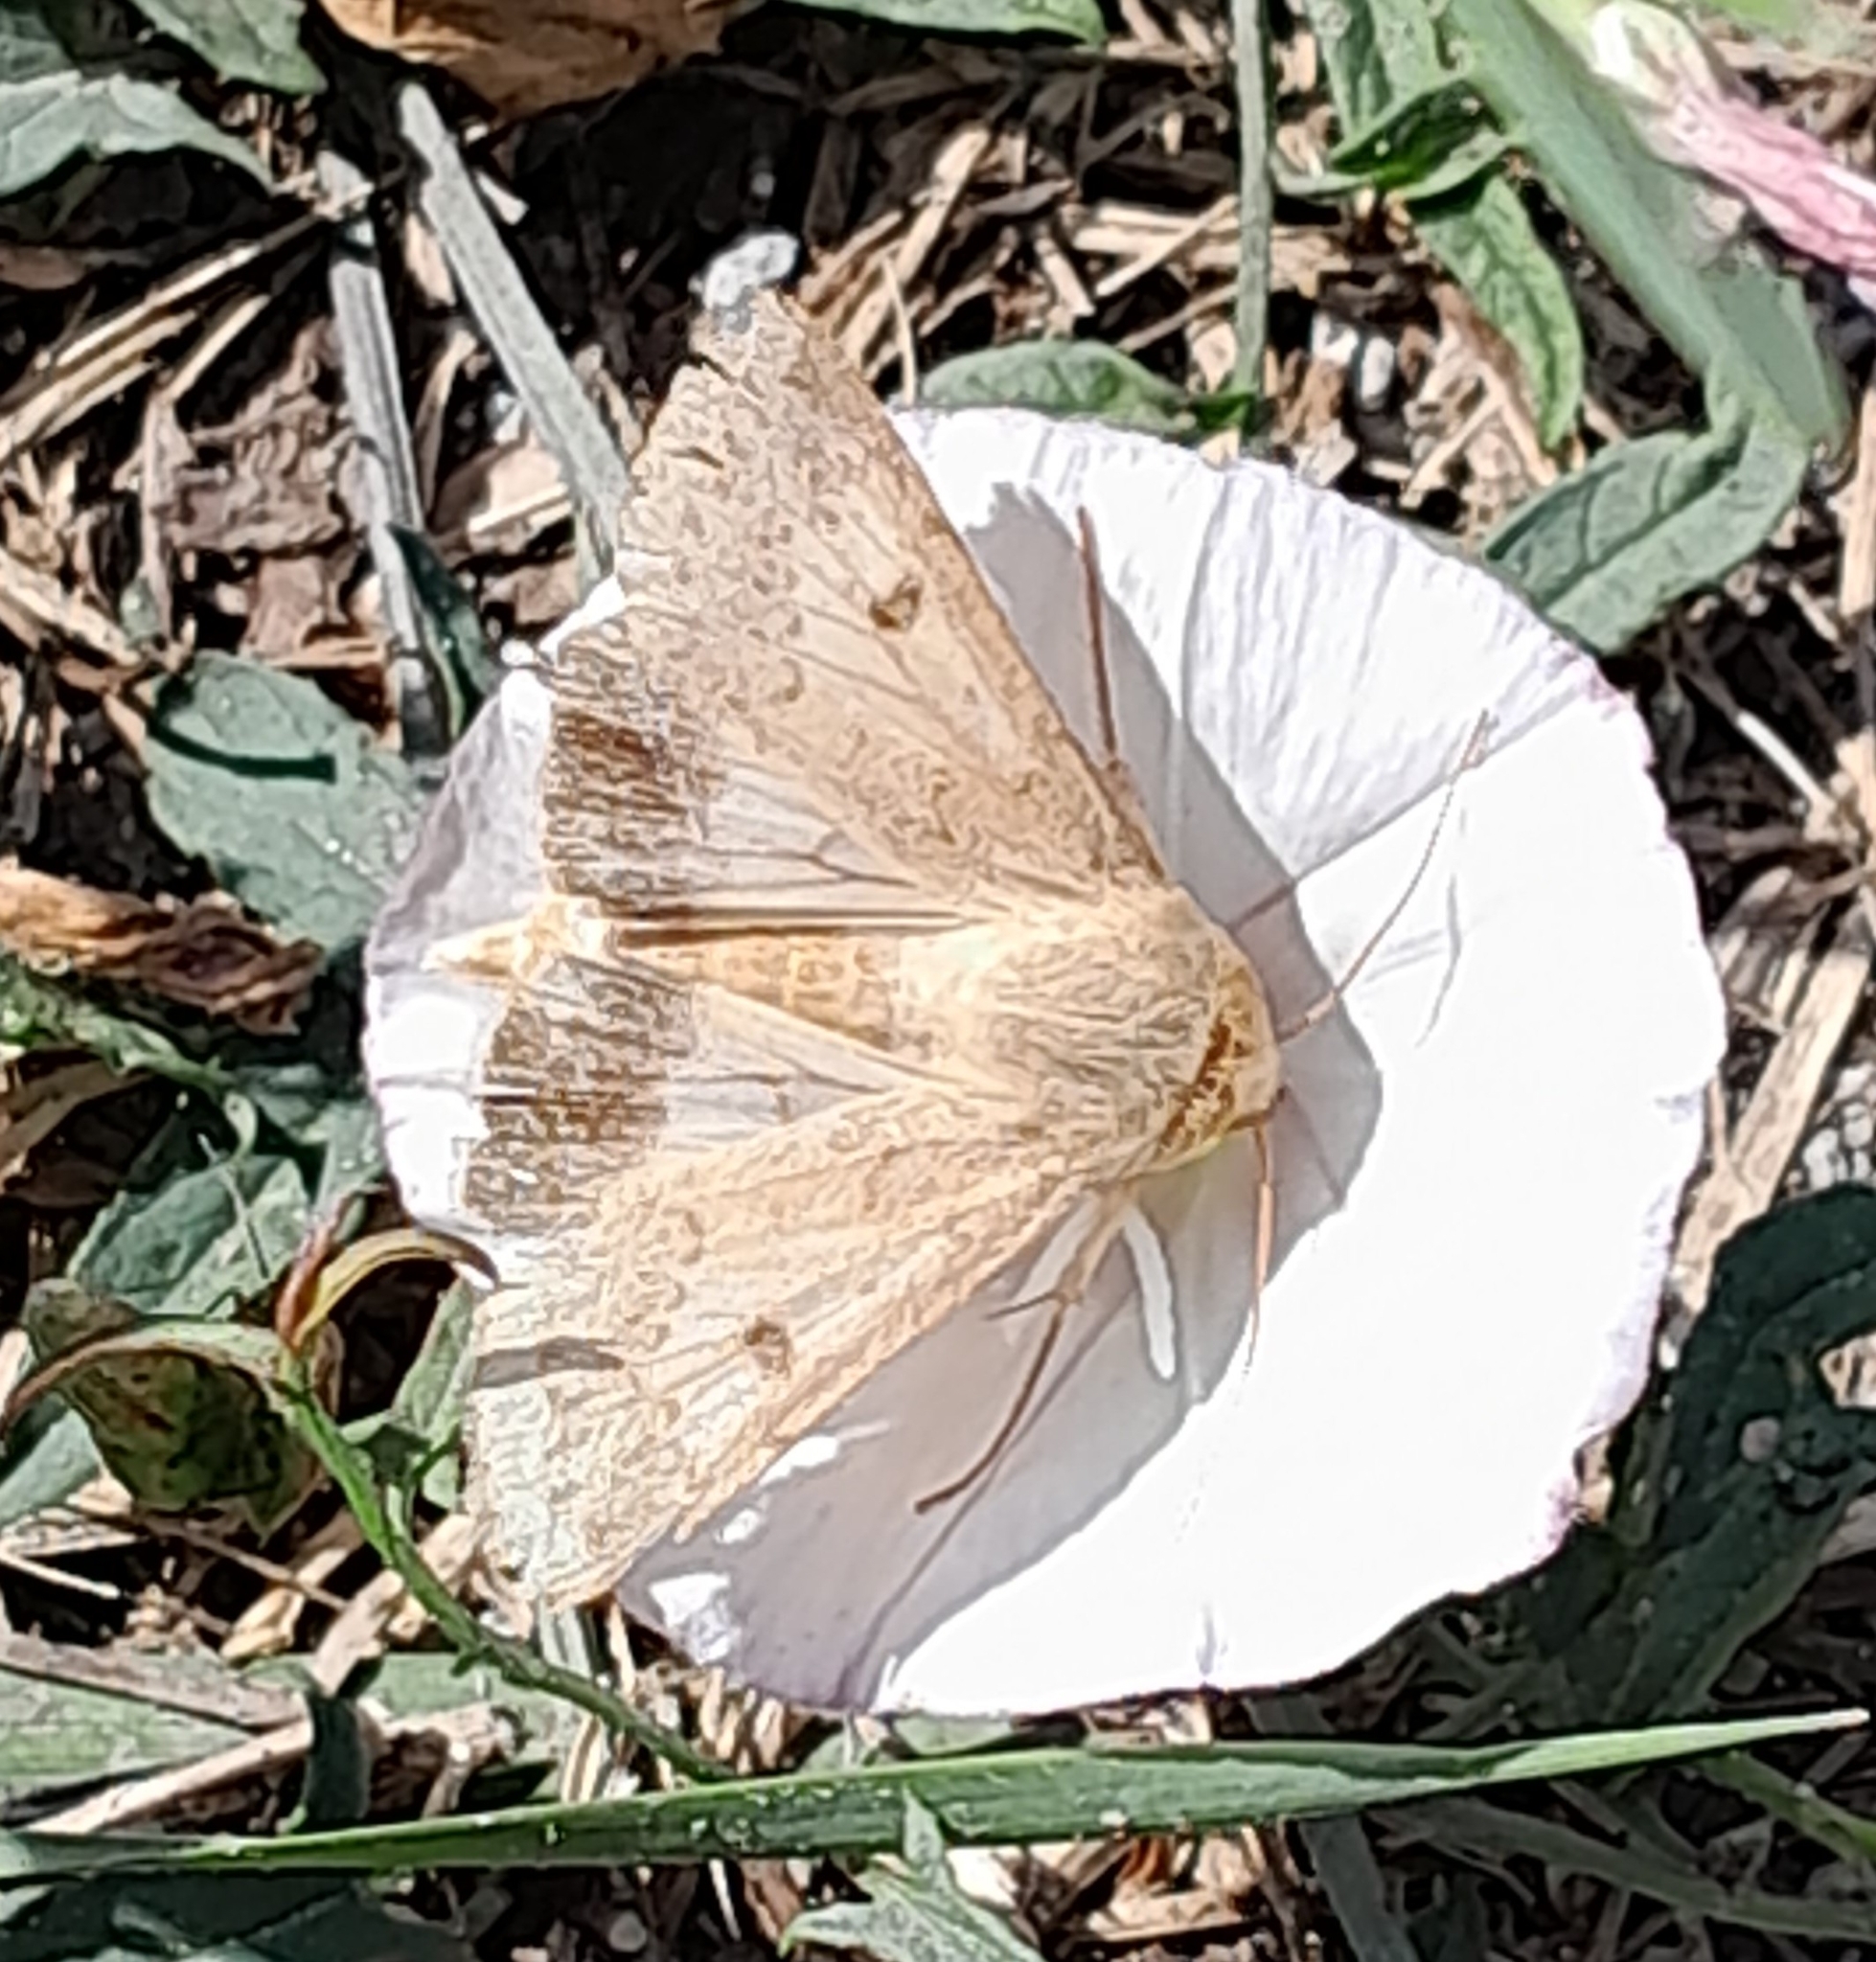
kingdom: Animalia
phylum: Arthropoda
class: Insecta
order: Lepidoptera
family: Noctuidae
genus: Helicoverpa
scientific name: Helicoverpa armigera
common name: Cotton bollworm
